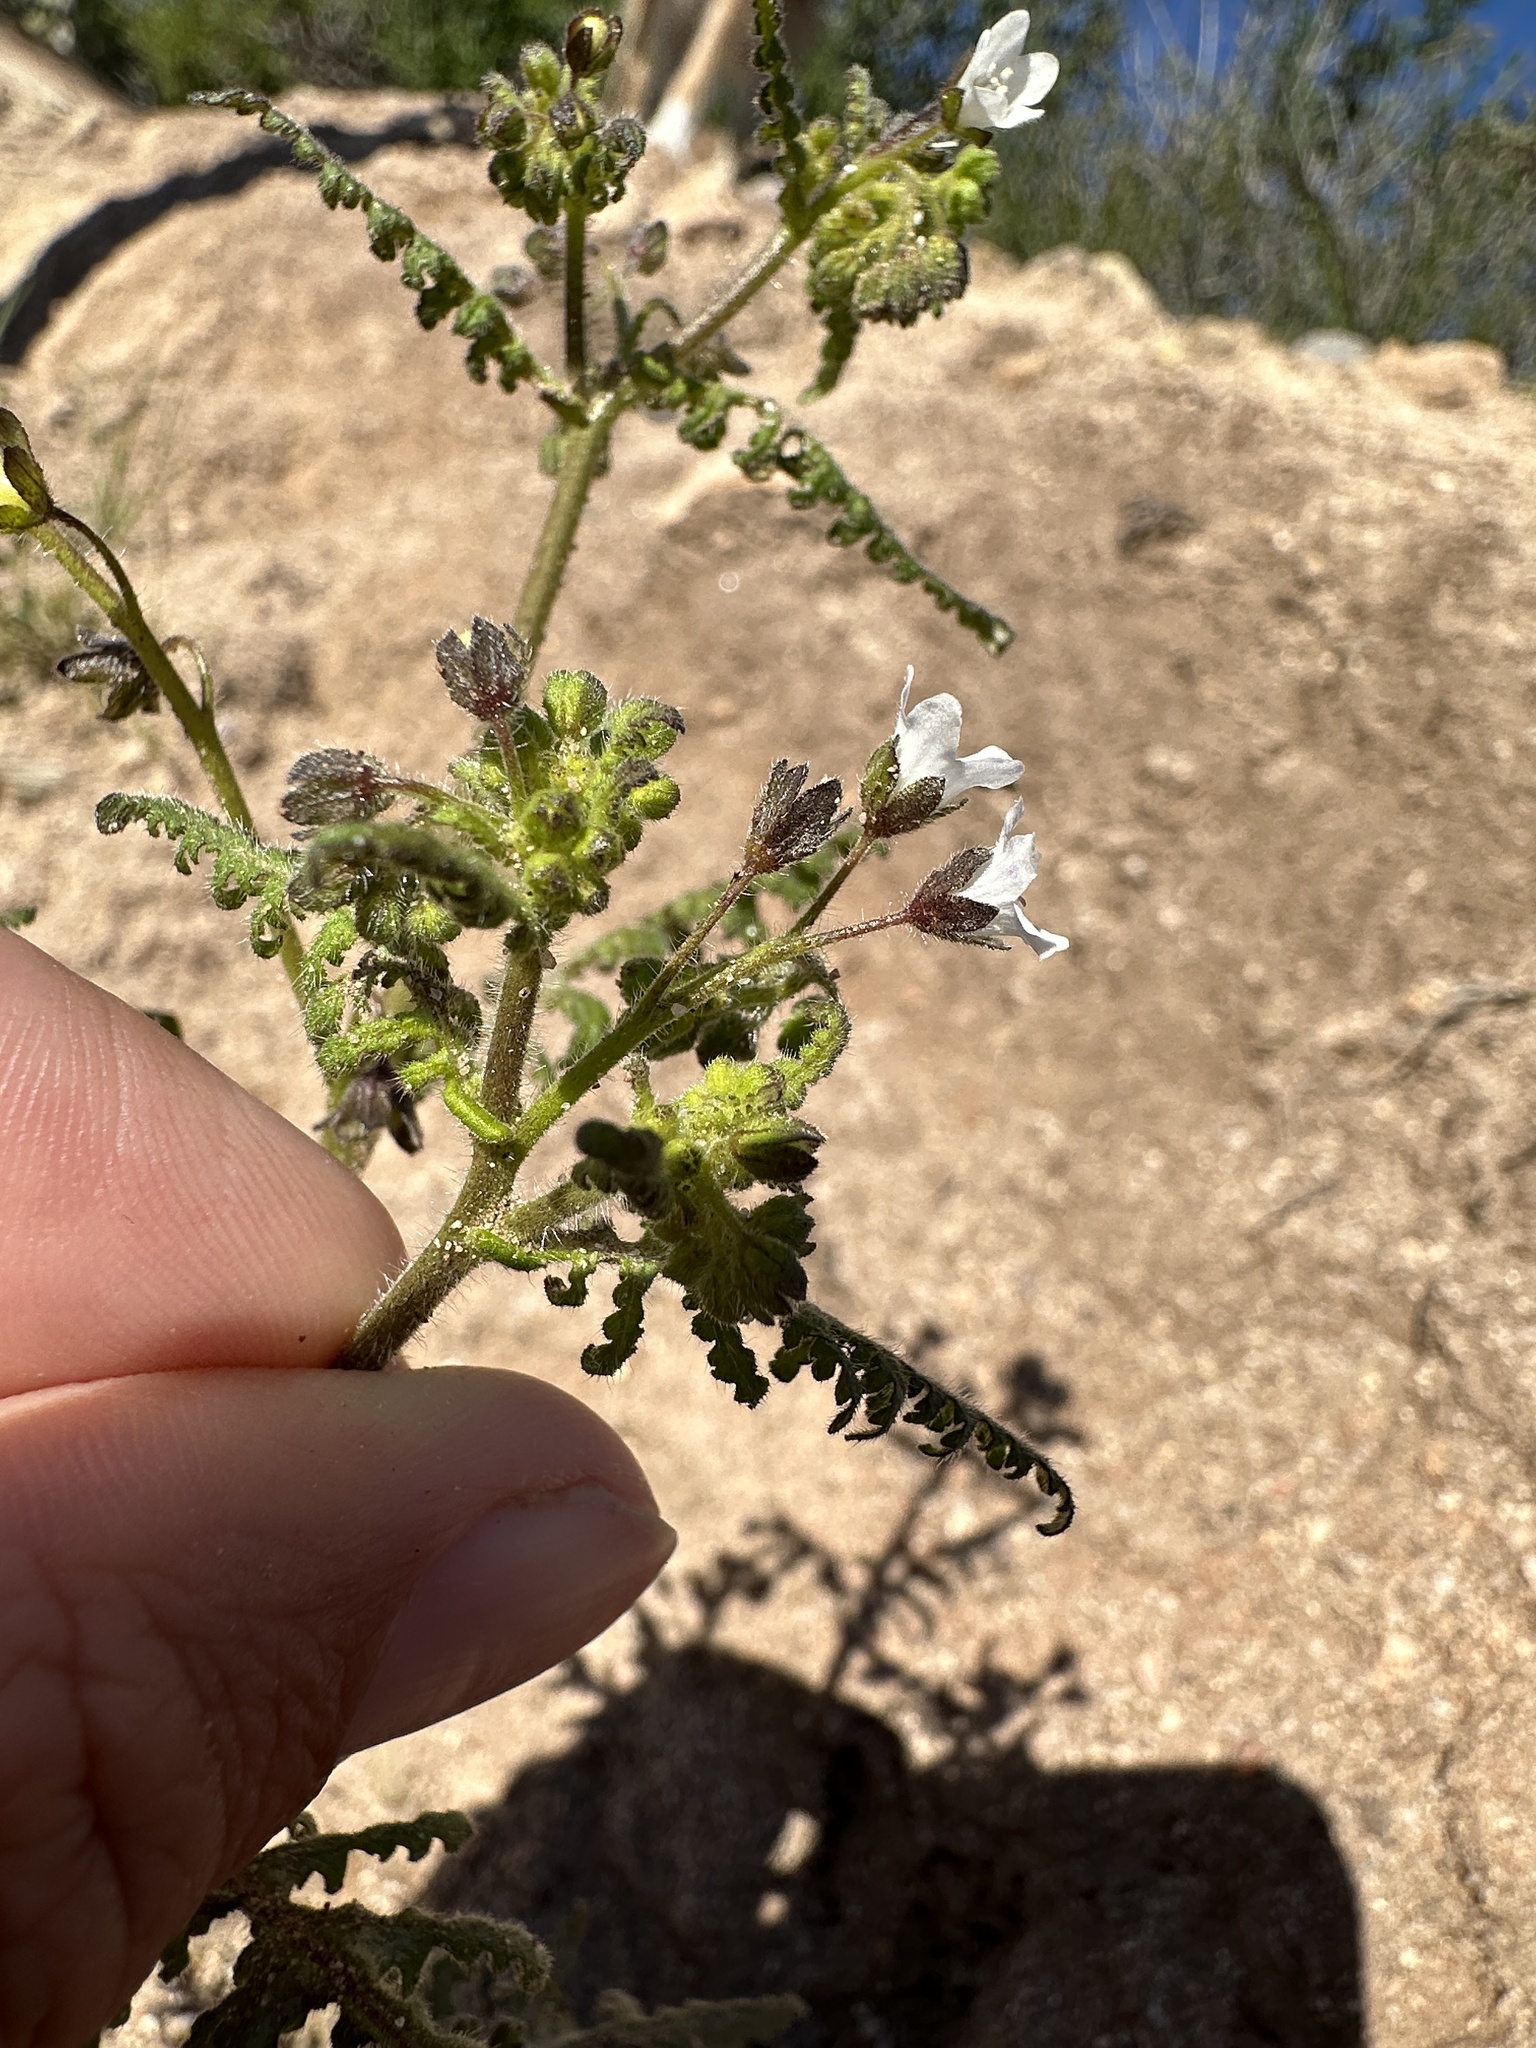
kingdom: Plantae
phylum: Tracheophyta
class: Magnoliopsida
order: Boraginales
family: Hydrophyllaceae
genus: Eucrypta
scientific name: Eucrypta chrysanthemifolia
